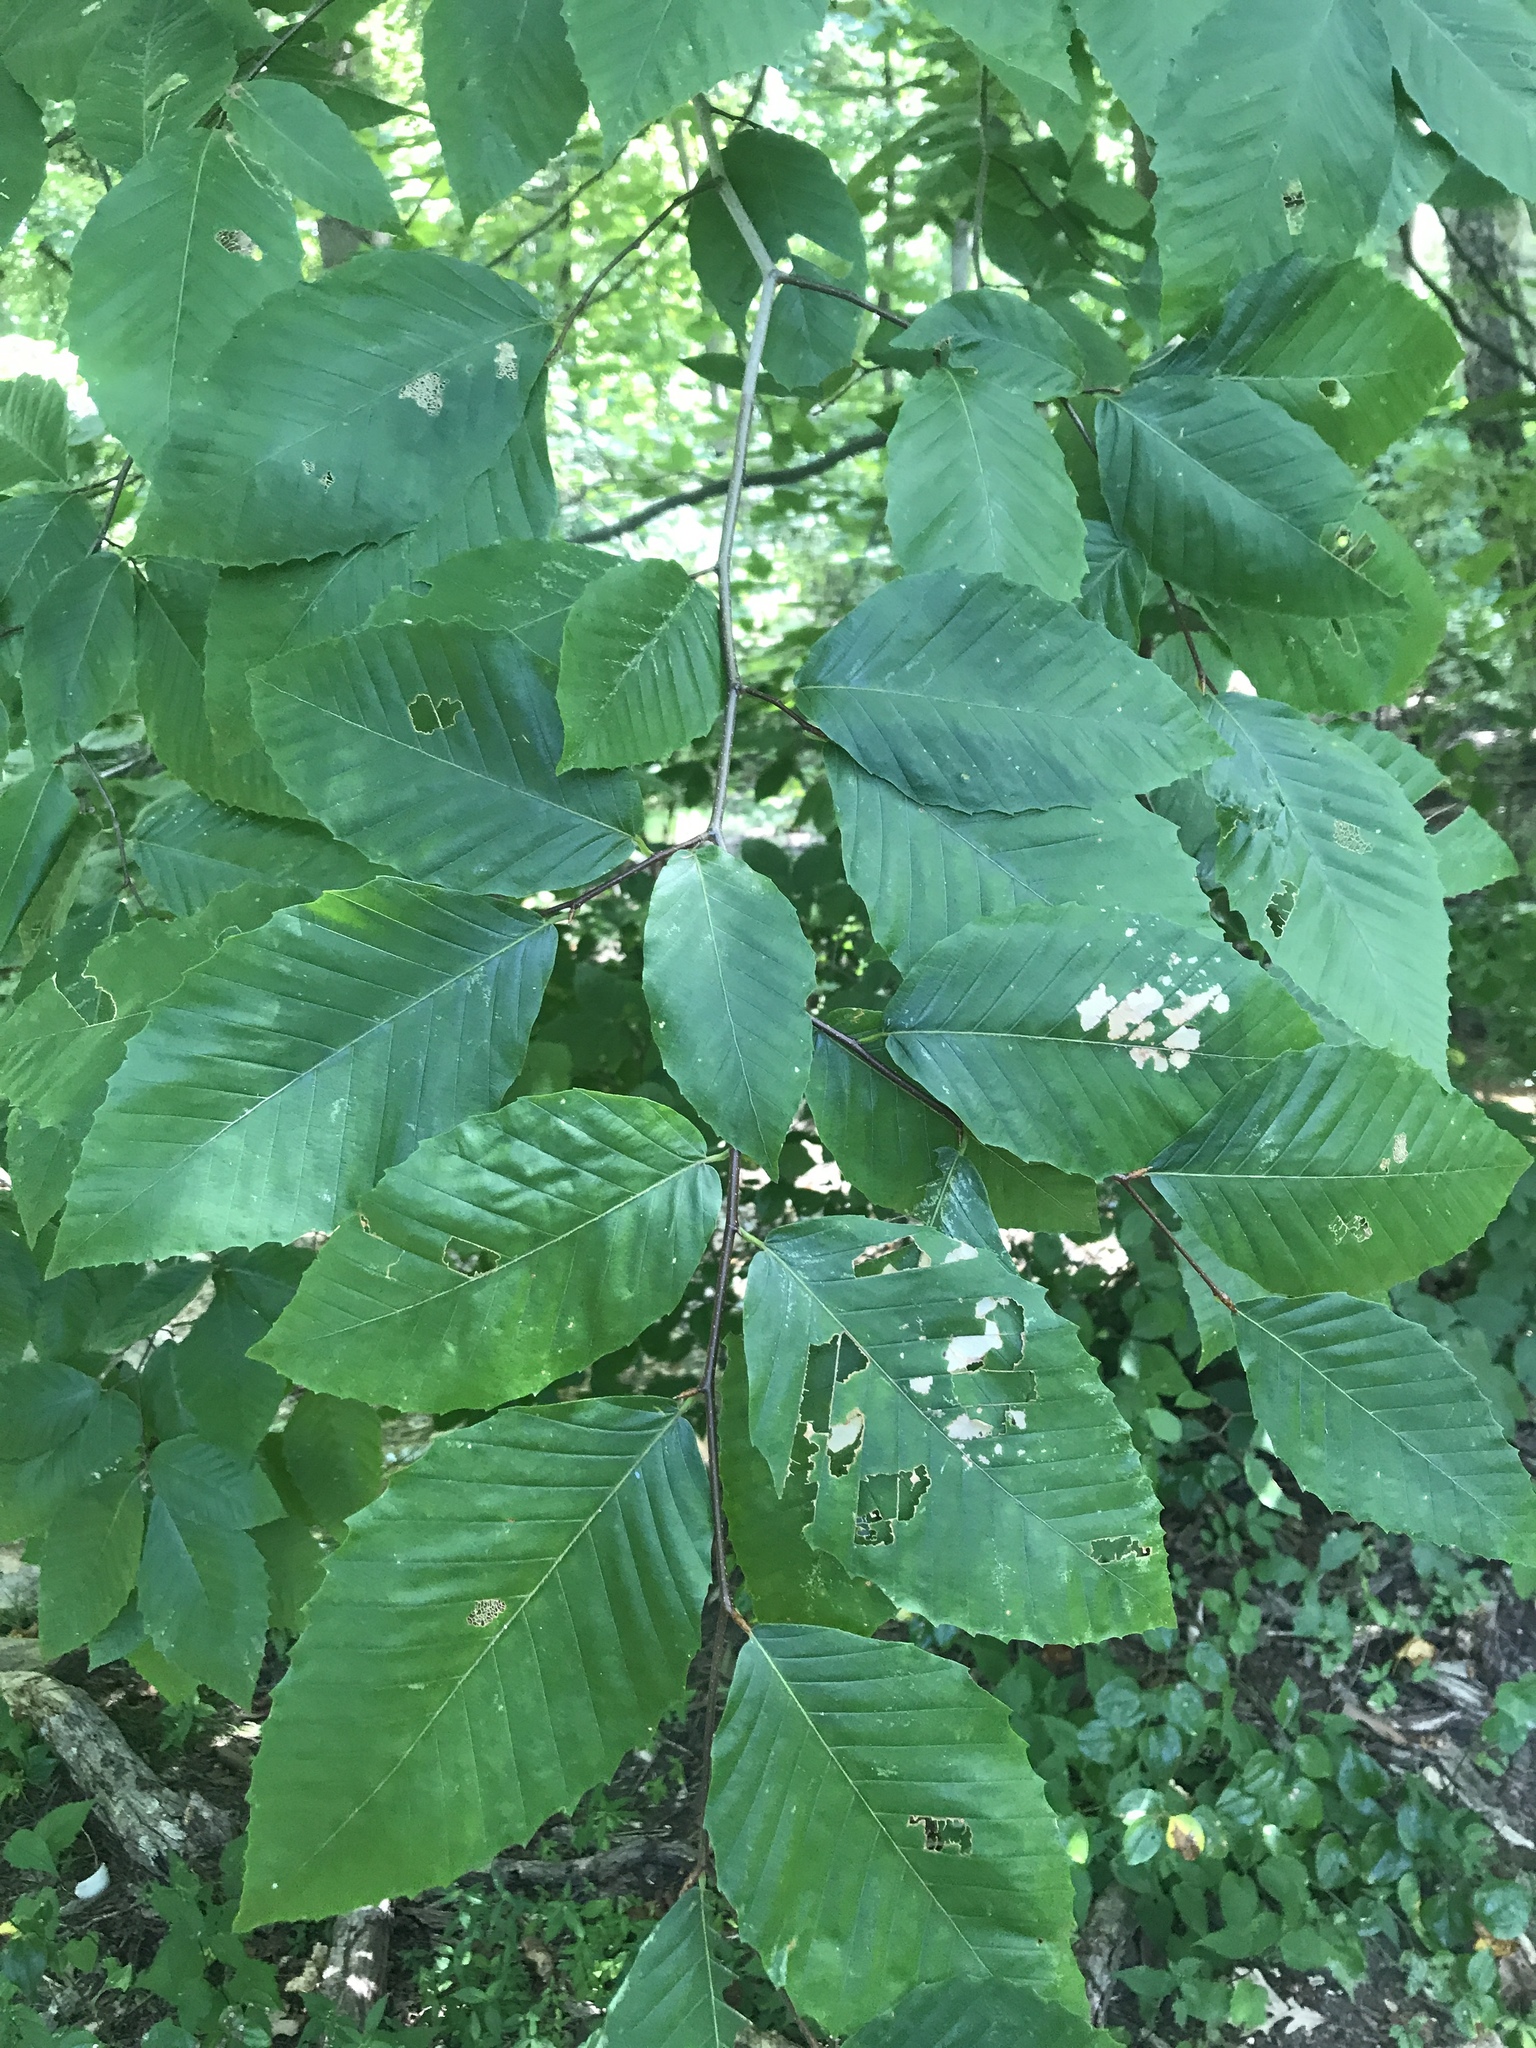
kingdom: Plantae
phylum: Tracheophyta
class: Magnoliopsida
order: Fagales
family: Fagaceae
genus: Fagus
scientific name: Fagus grandifolia
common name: American beech
